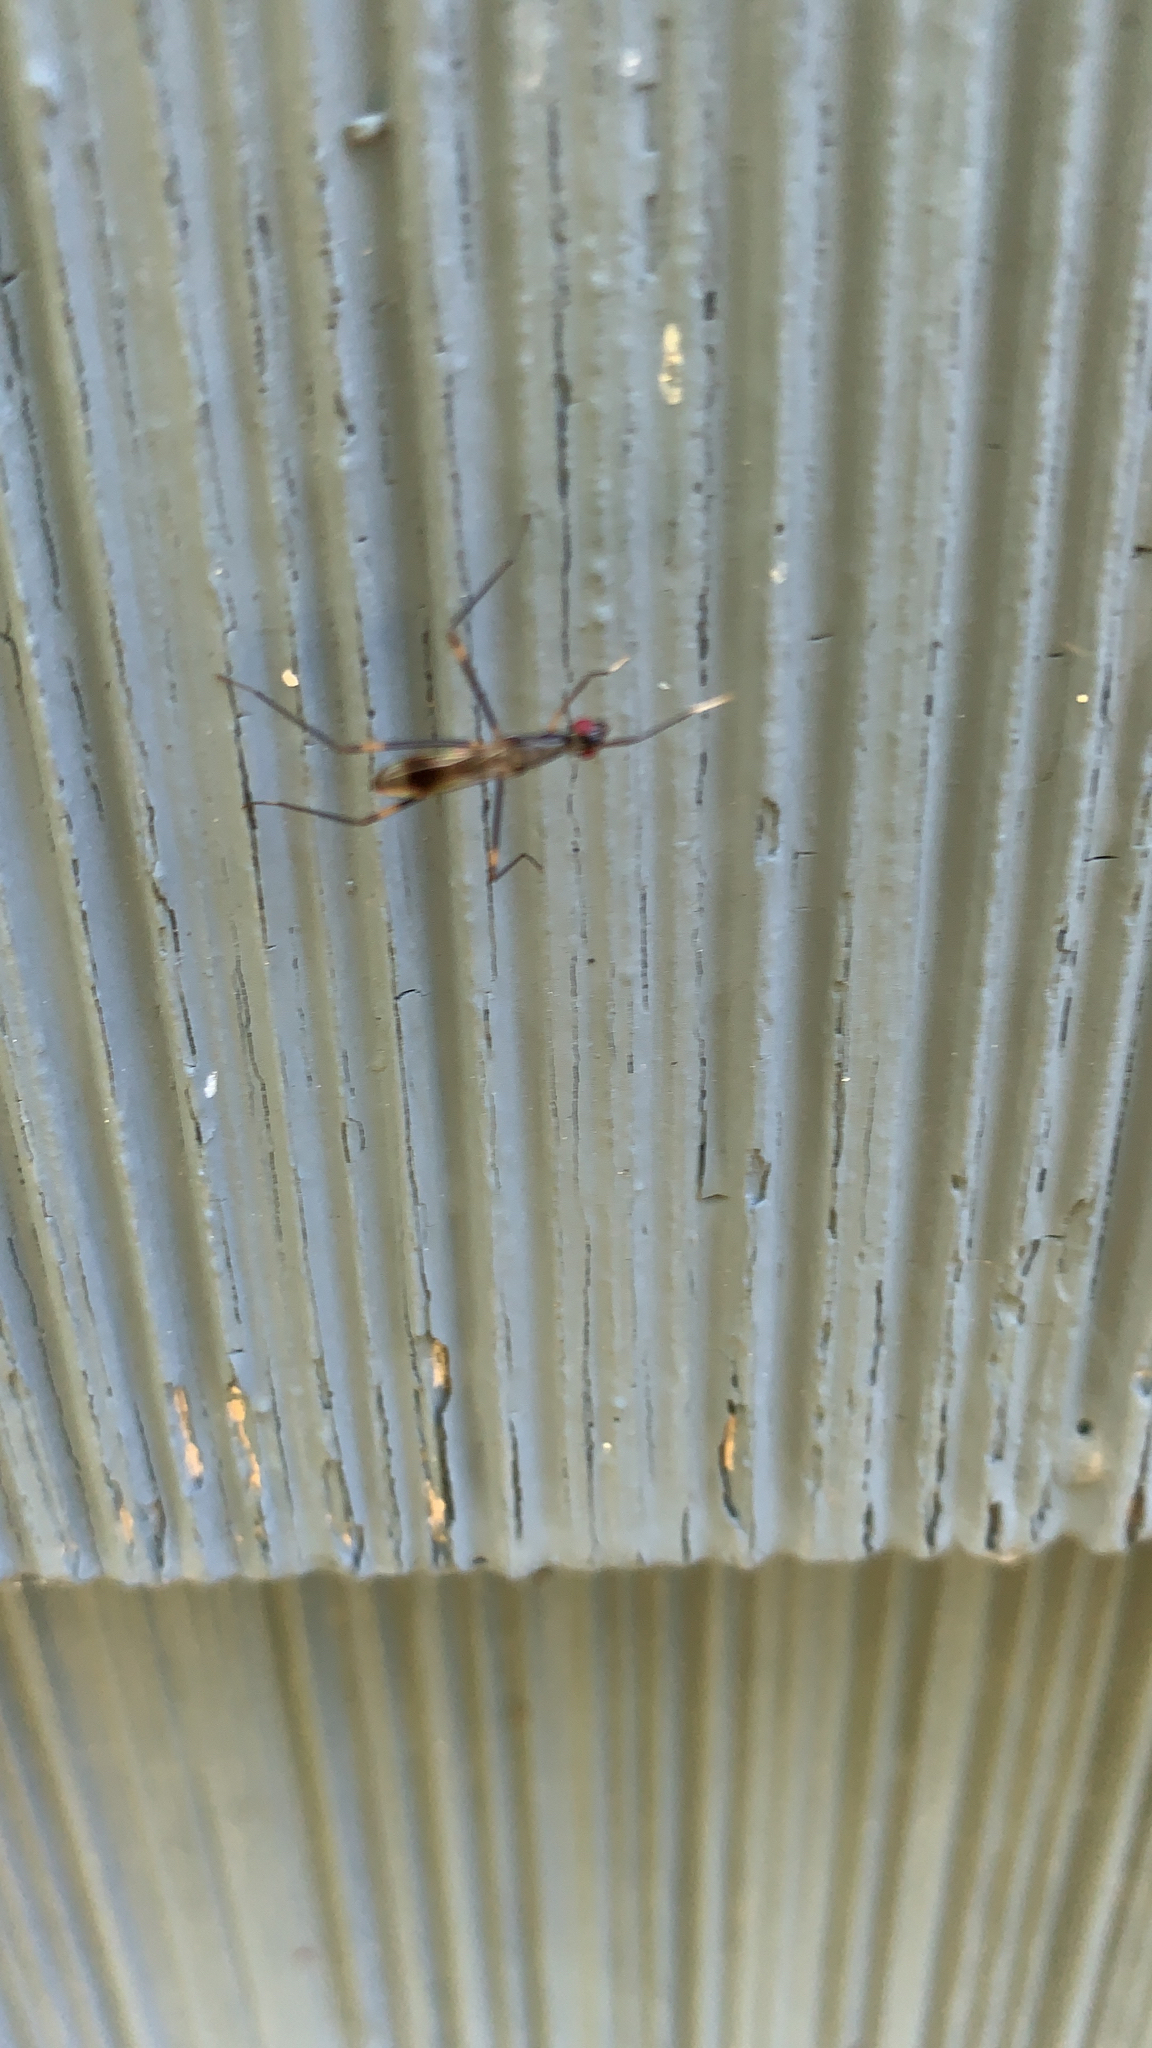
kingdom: Animalia
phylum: Arthropoda
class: Insecta
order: Diptera
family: Micropezidae
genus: Rainieria
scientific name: Rainieria antennaepes
